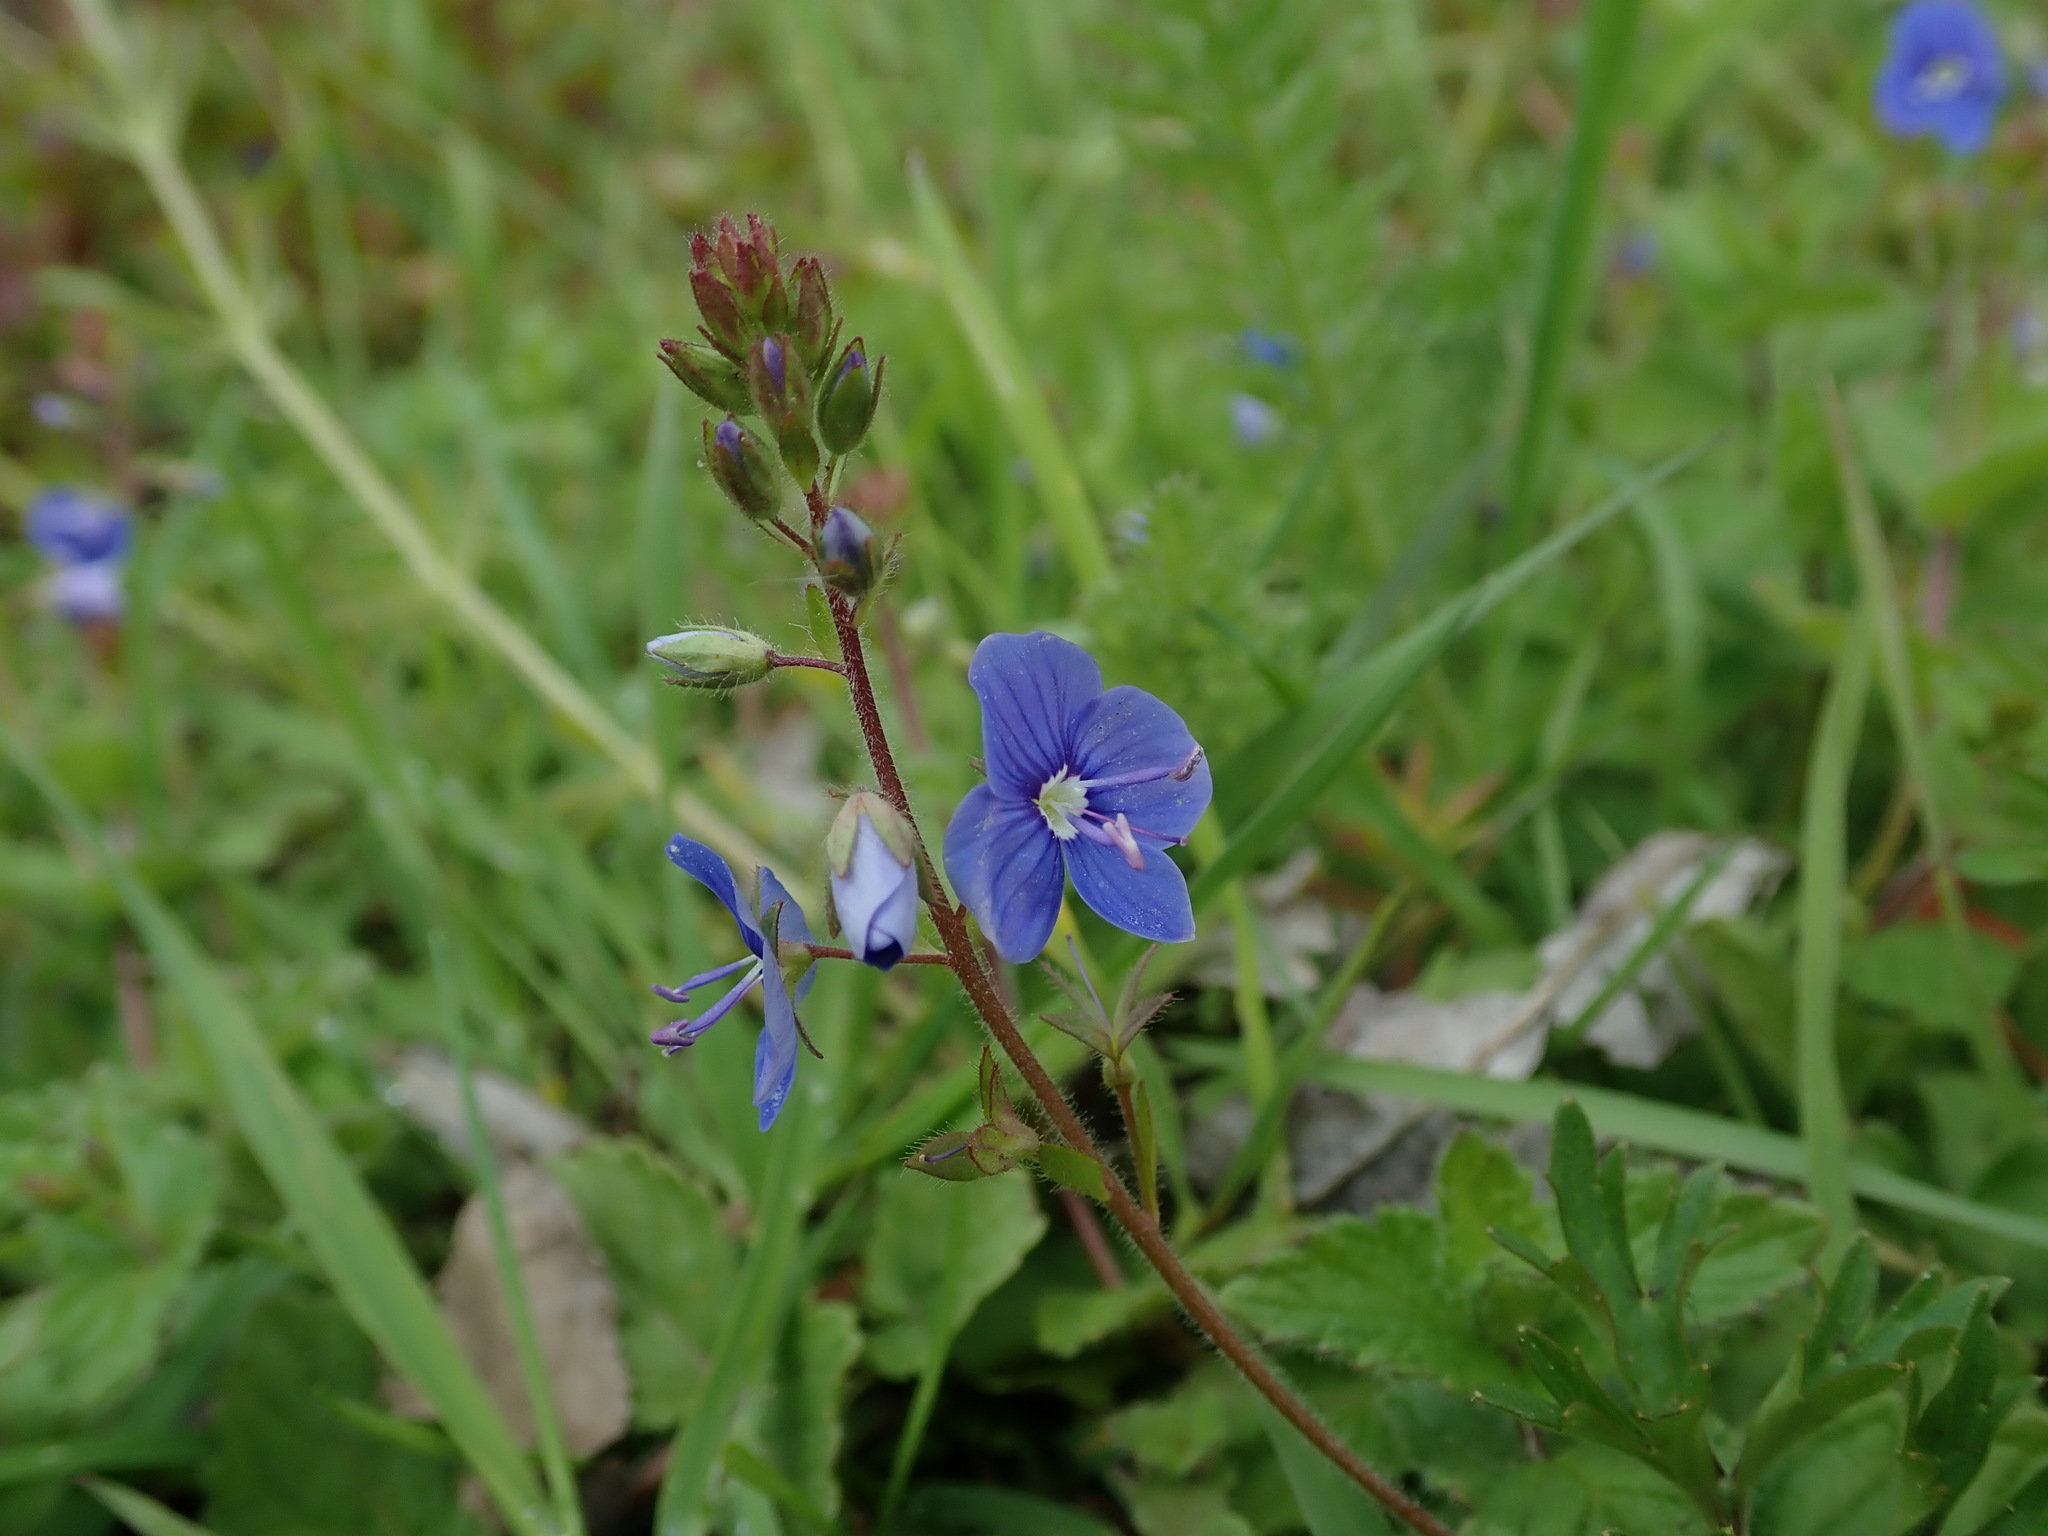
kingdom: Plantae
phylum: Tracheophyta
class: Magnoliopsida
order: Lamiales
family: Plantaginaceae
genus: Veronica
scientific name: Veronica chamaedrys
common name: Germander speedwell
